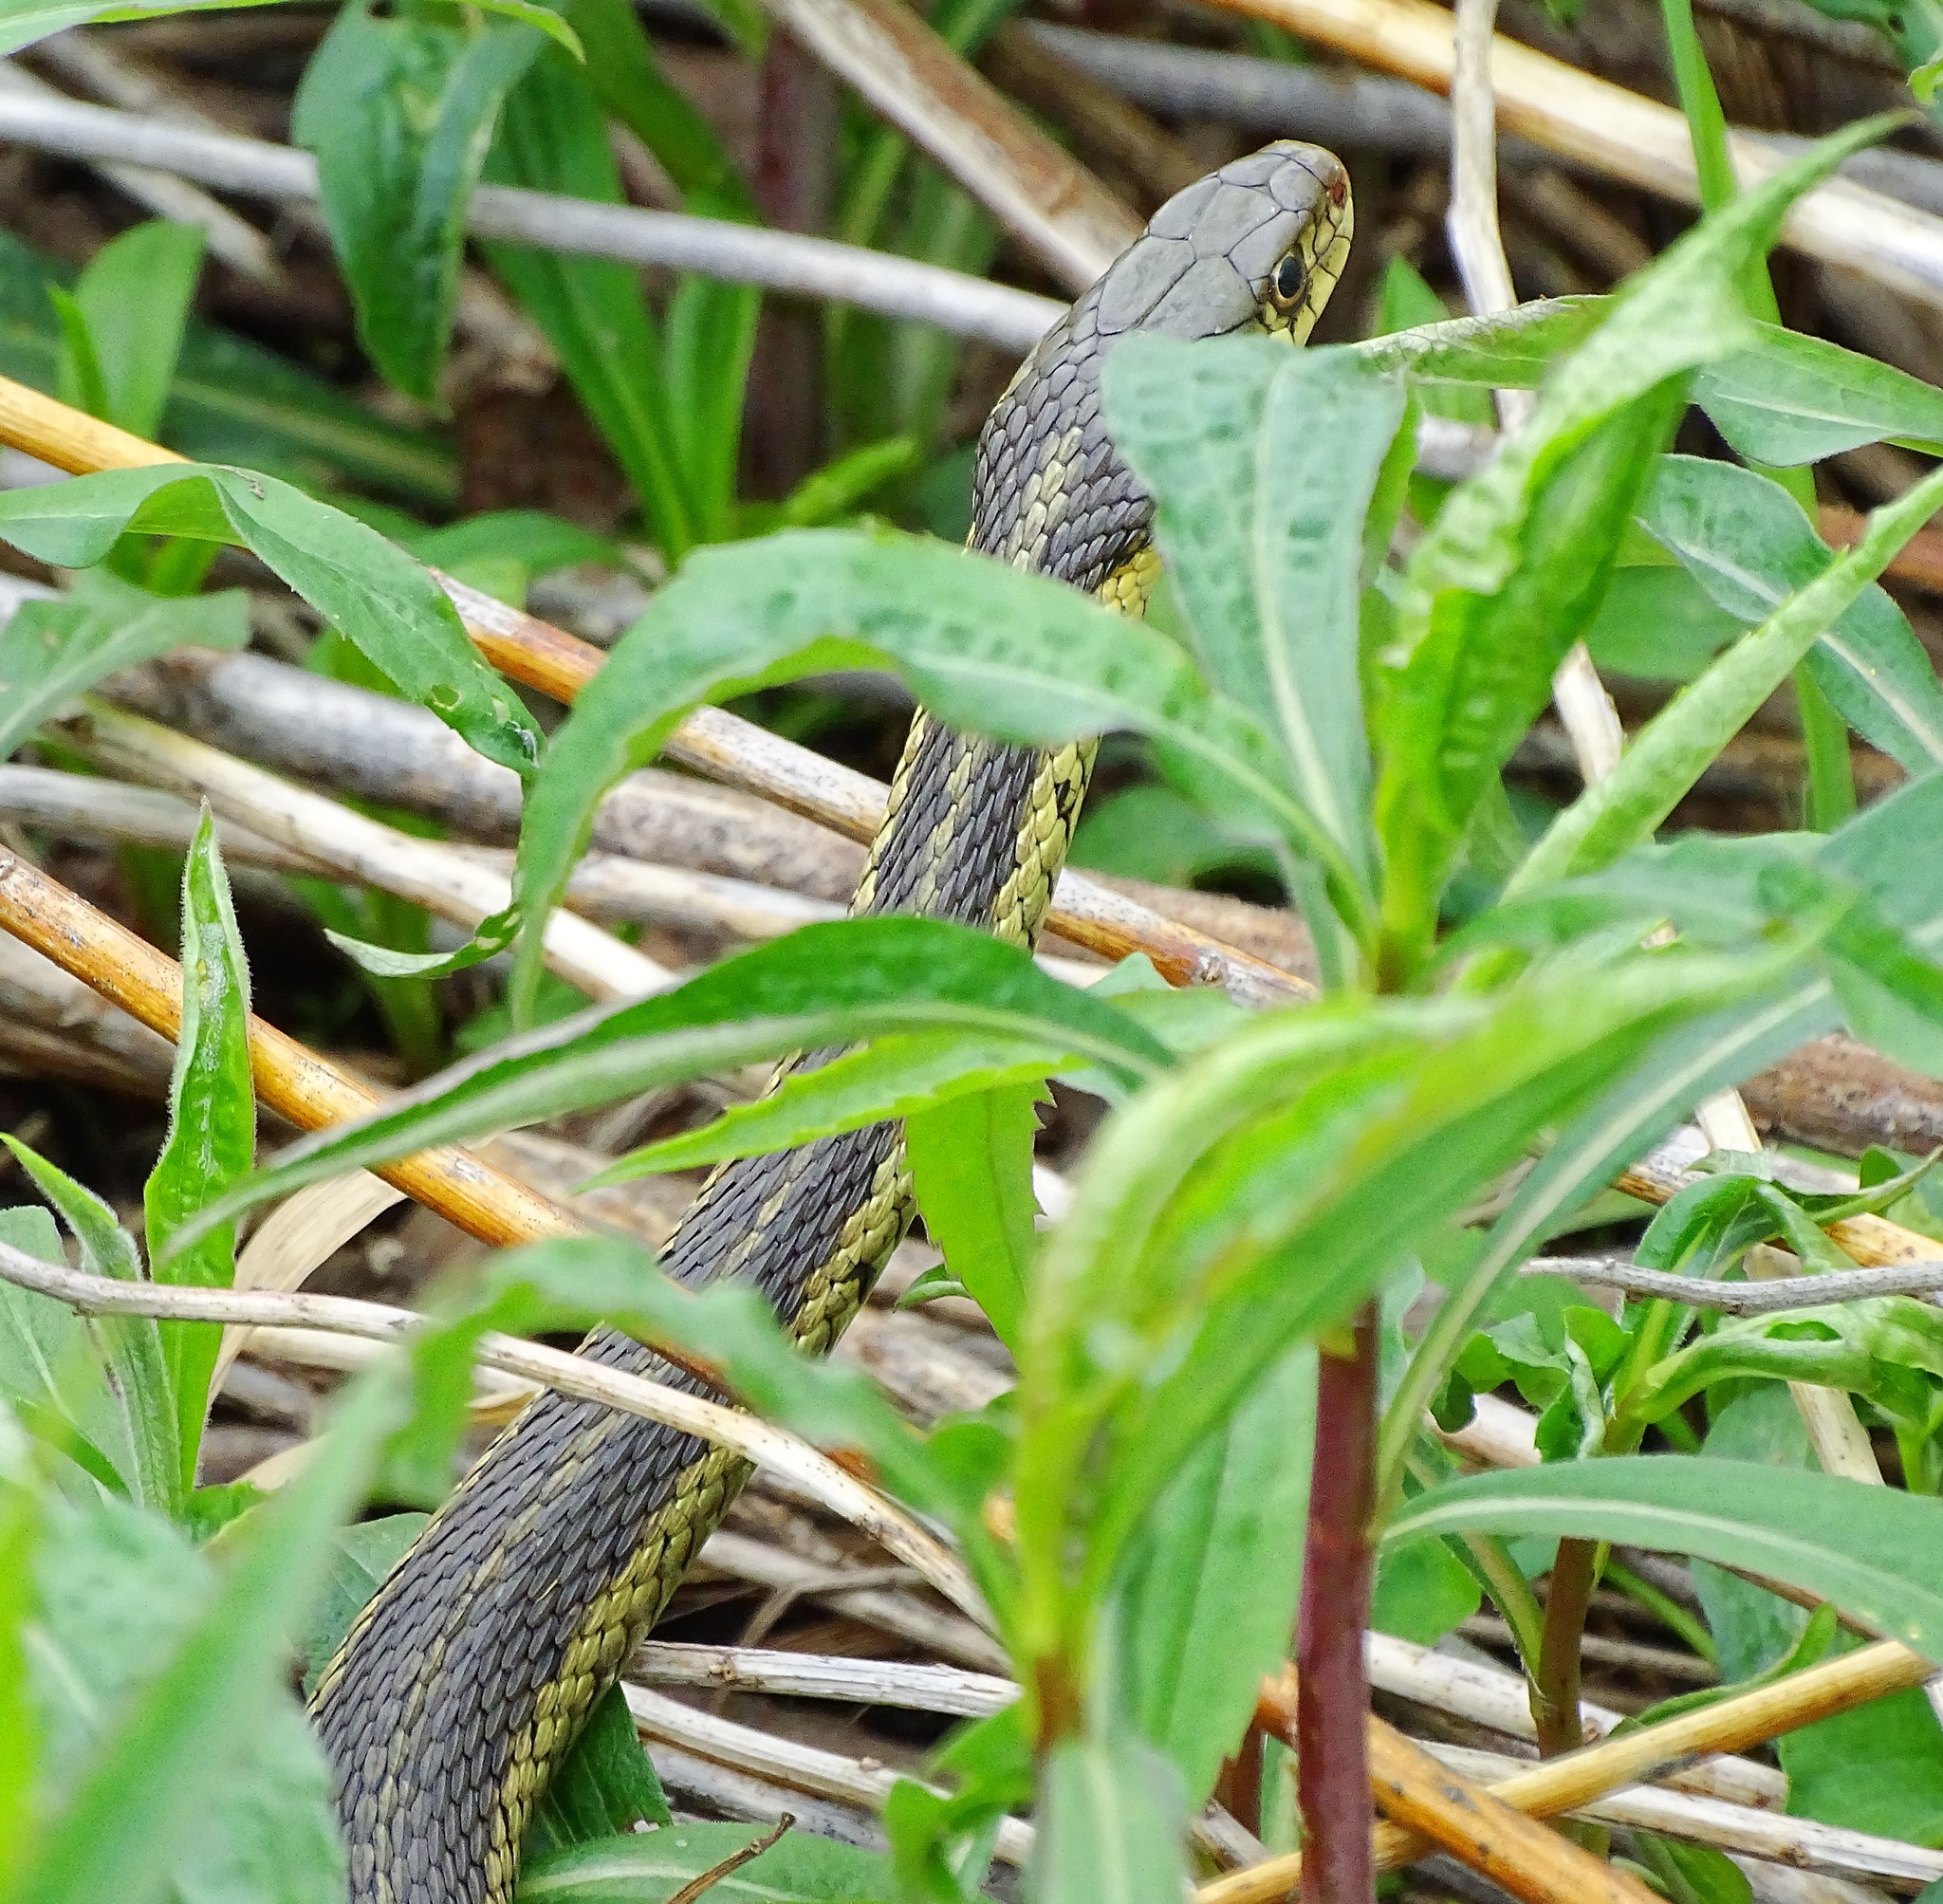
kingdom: Animalia
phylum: Chordata
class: Squamata
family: Colubridae
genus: Thamnophis
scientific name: Thamnophis sirtalis
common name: Common garter snake
